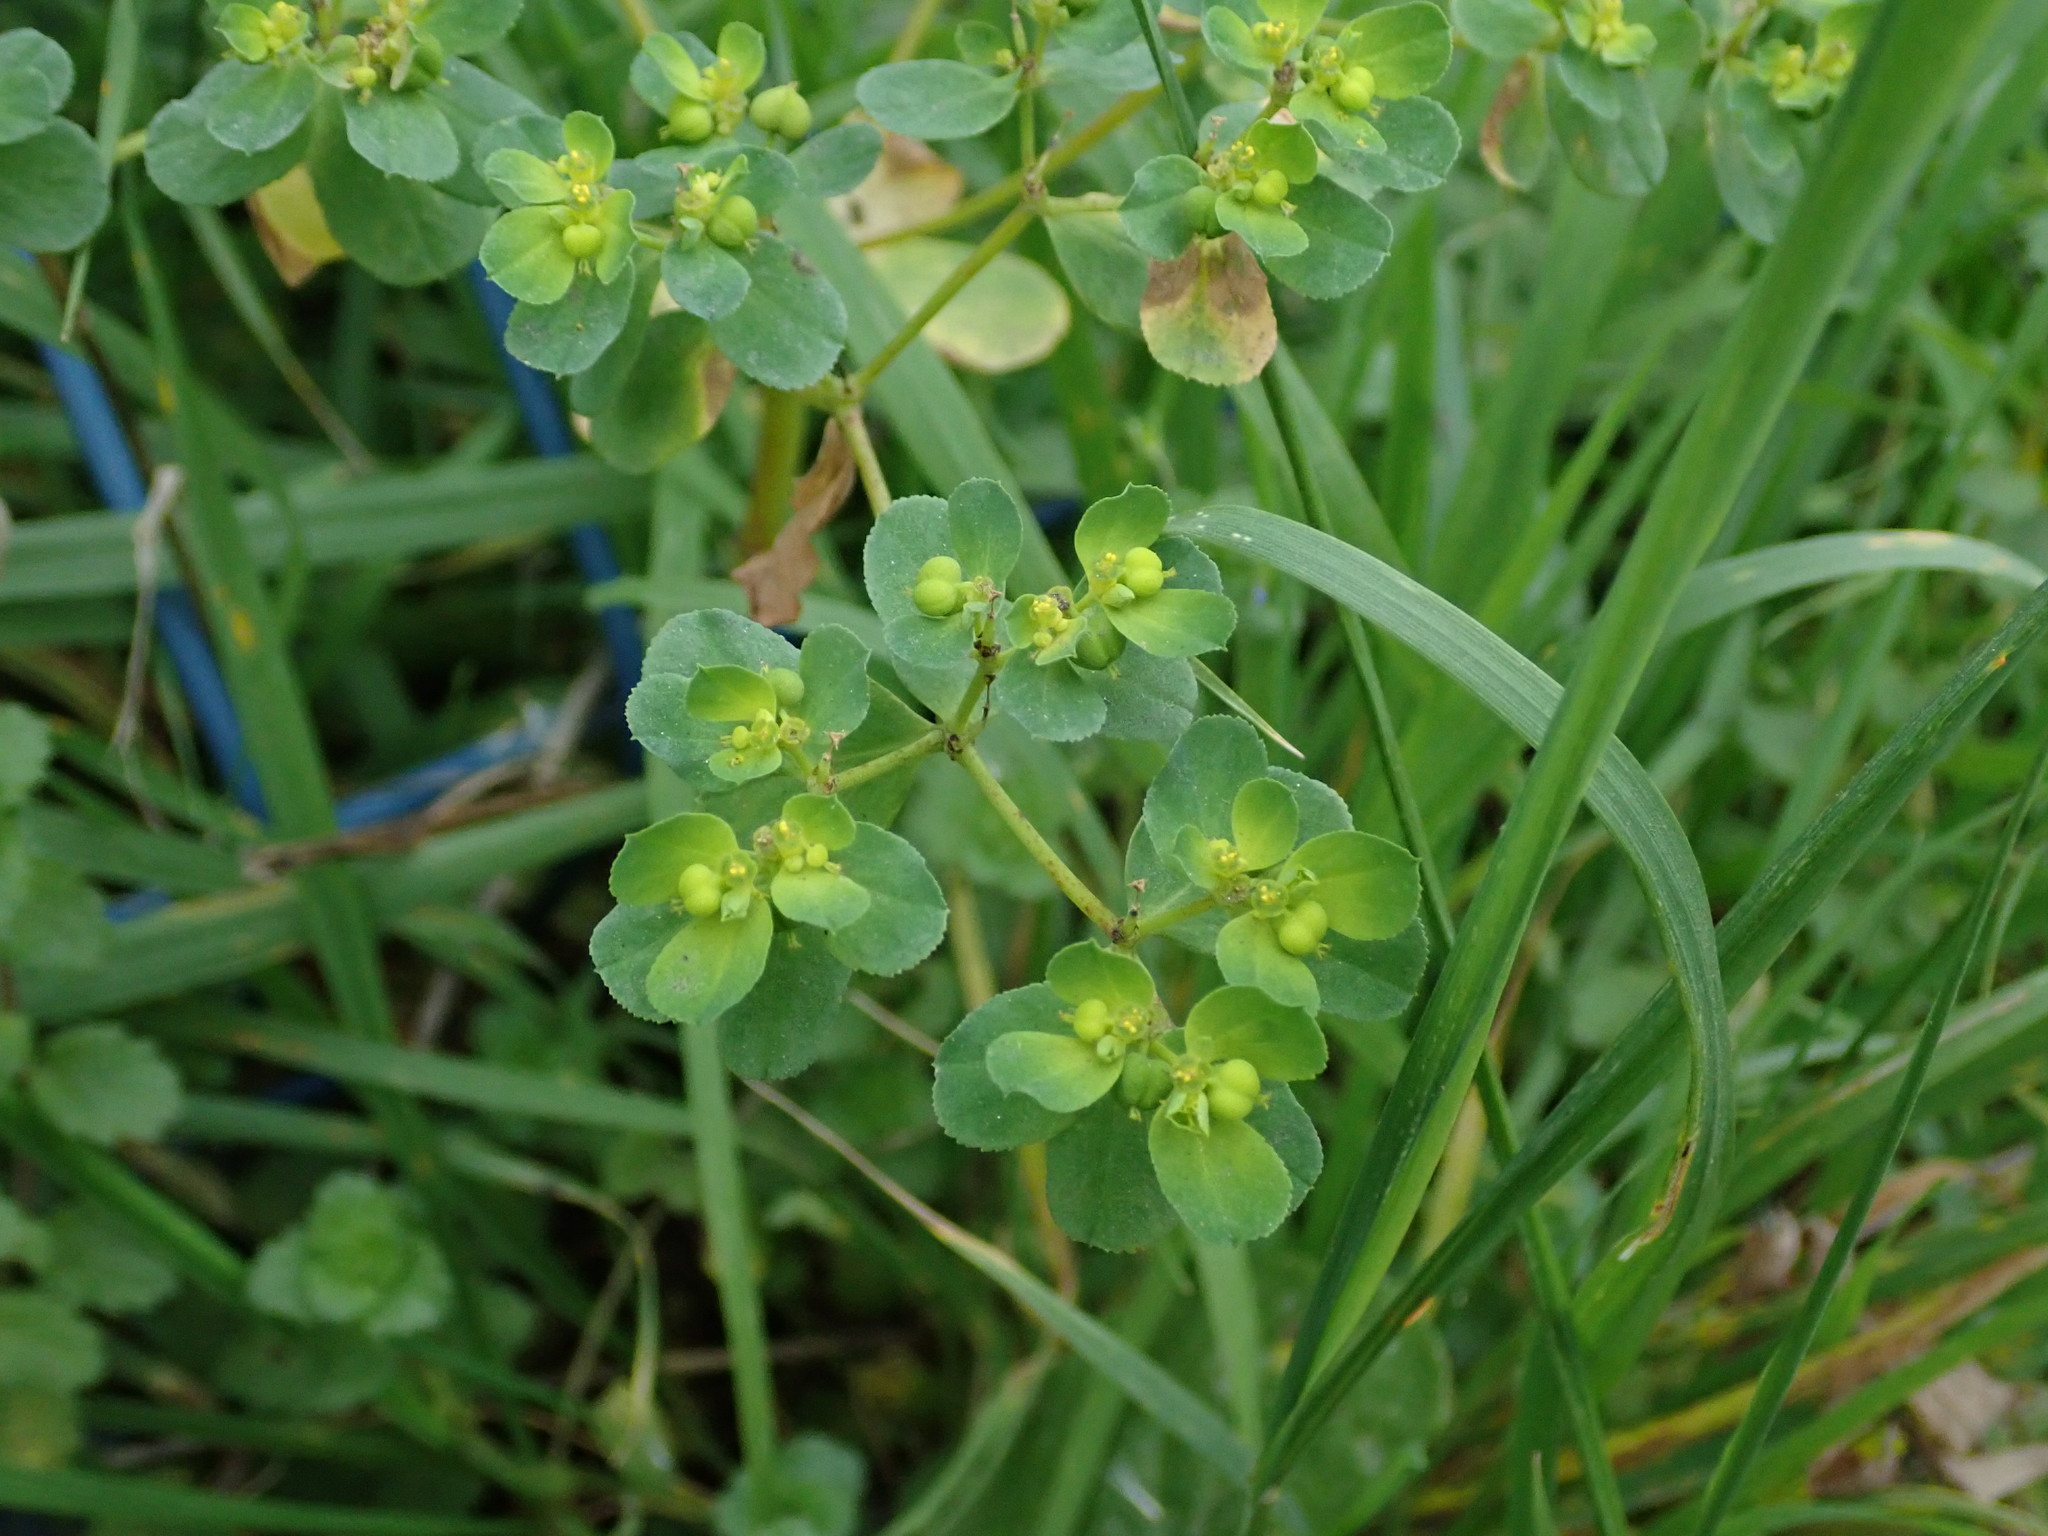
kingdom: Plantae
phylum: Tracheophyta
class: Magnoliopsida
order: Malpighiales
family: Euphorbiaceae
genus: Euphorbia
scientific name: Euphorbia helioscopia
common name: Sun spurge
